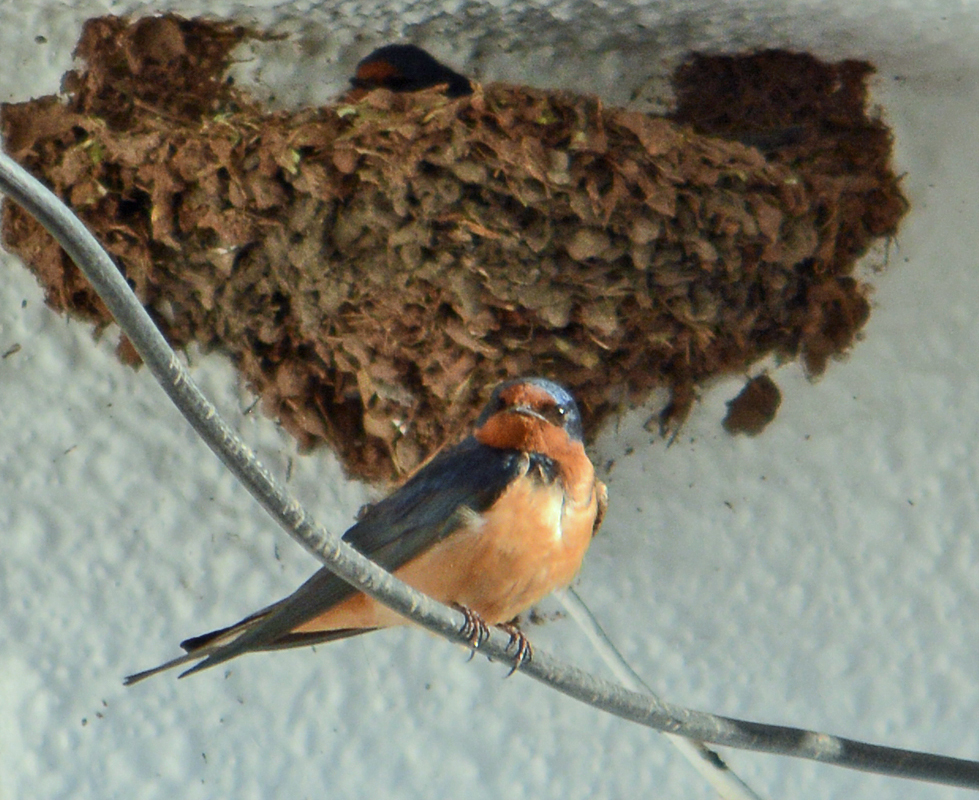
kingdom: Animalia
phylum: Chordata
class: Aves
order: Passeriformes
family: Hirundinidae
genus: Hirundo
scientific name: Hirundo rustica
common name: Barn swallow
